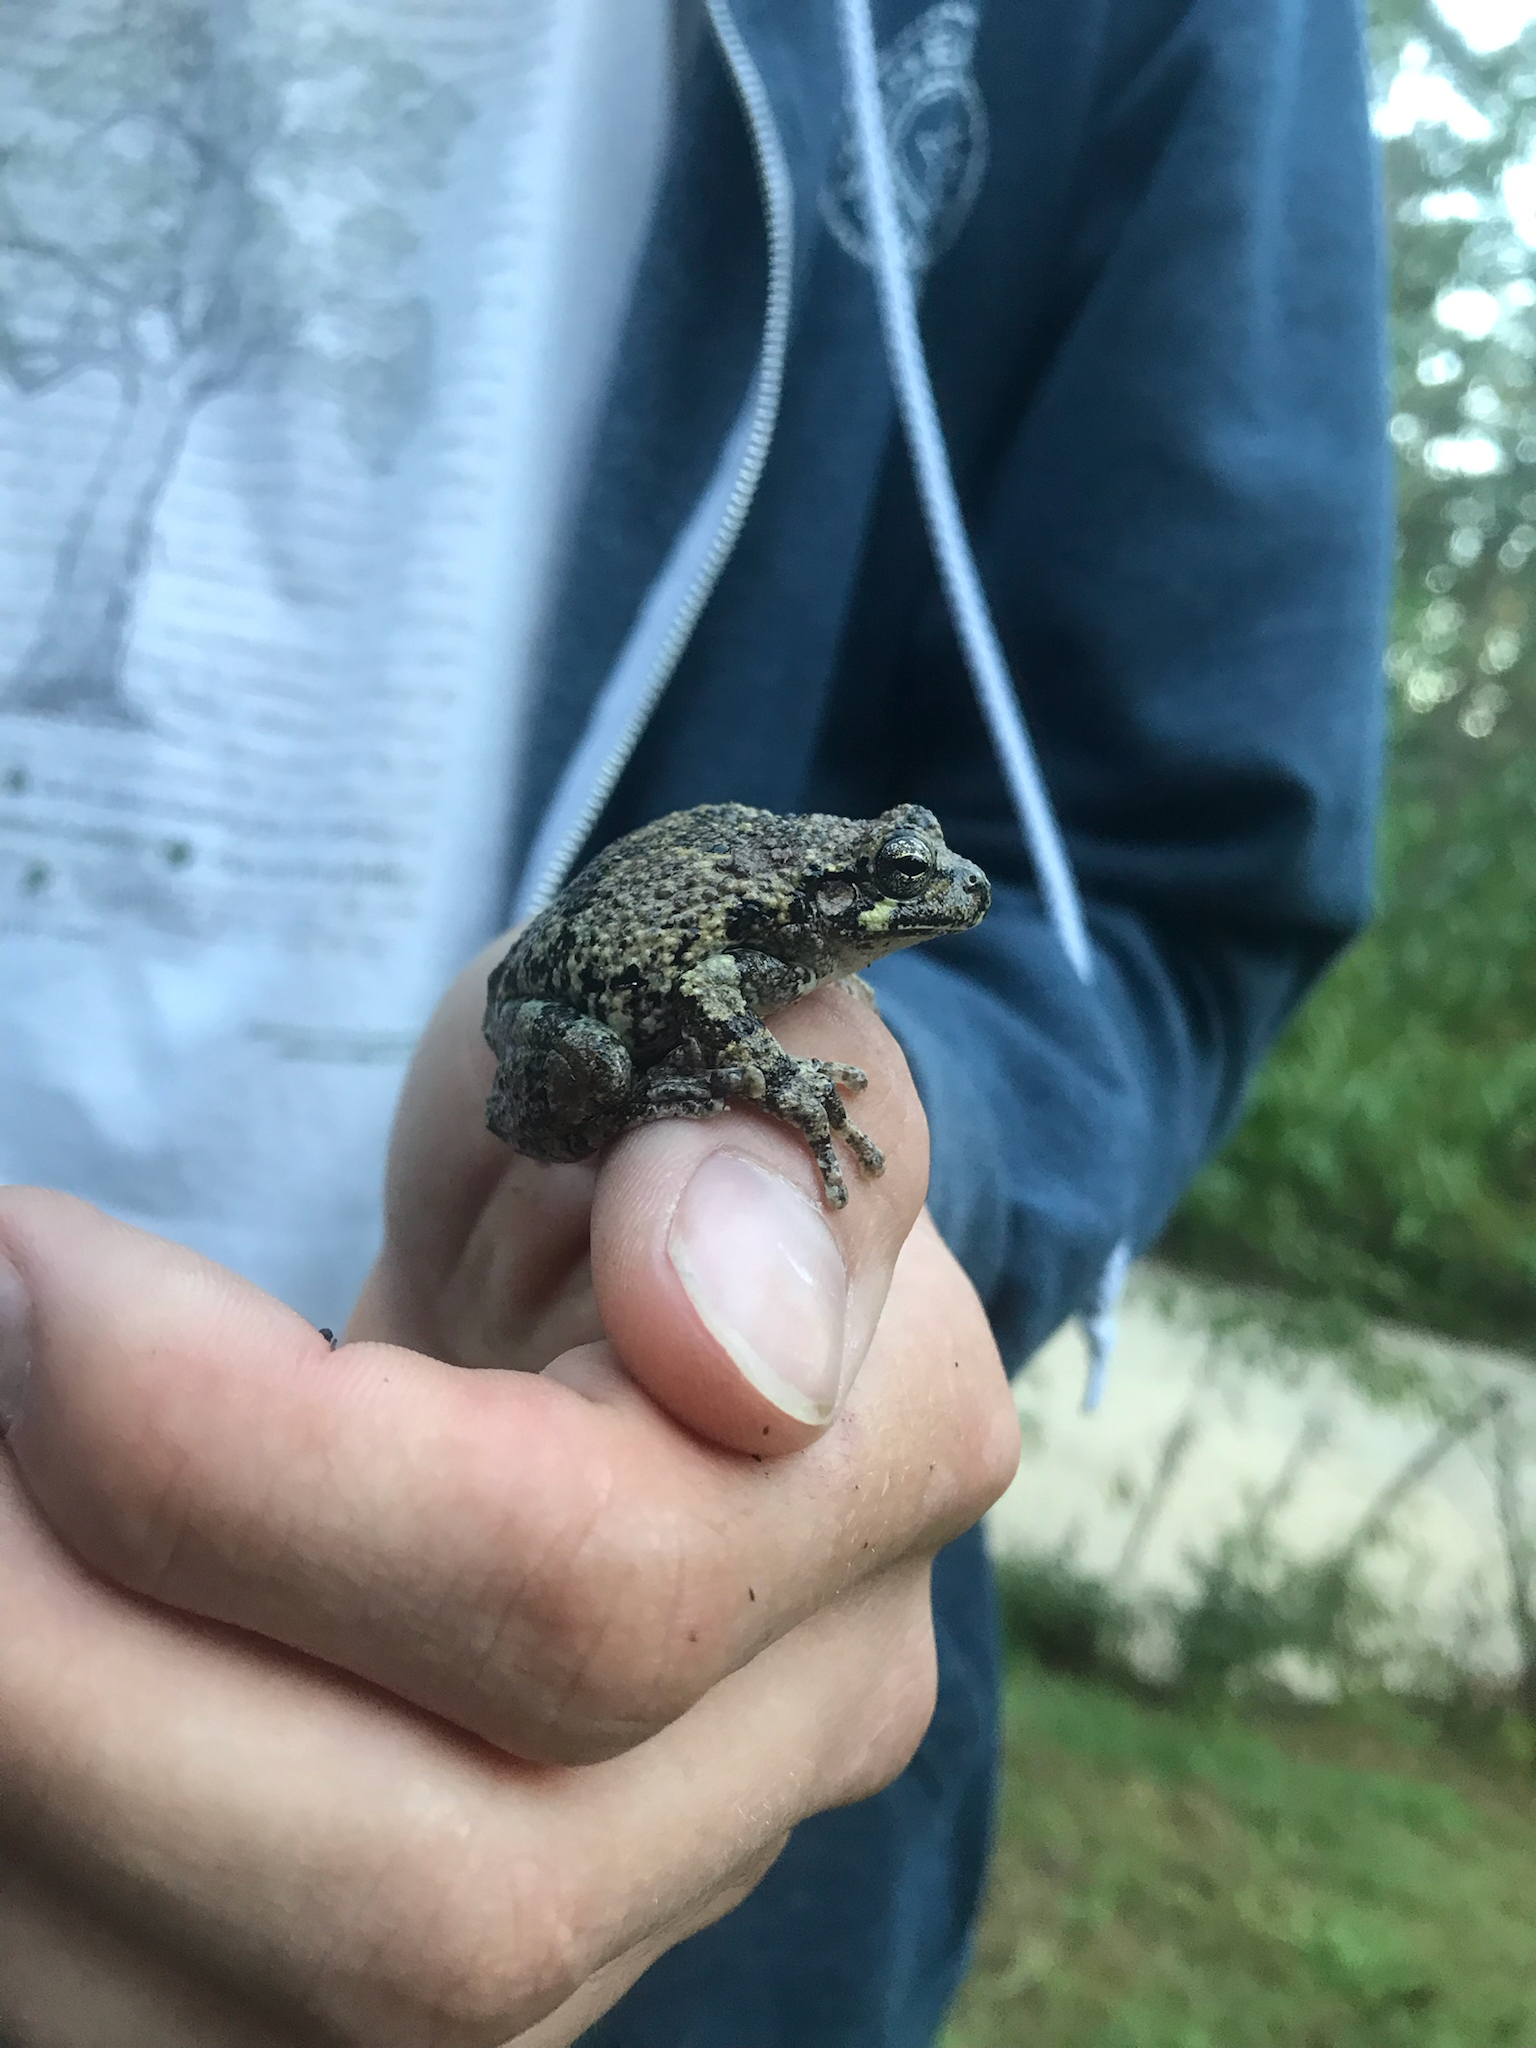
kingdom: Animalia
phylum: Chordata
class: Amphibia
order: Anura
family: Hylidae
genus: Dryophytes
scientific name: Dryophytes chrysoscelis
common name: Cope's gray treefrog
